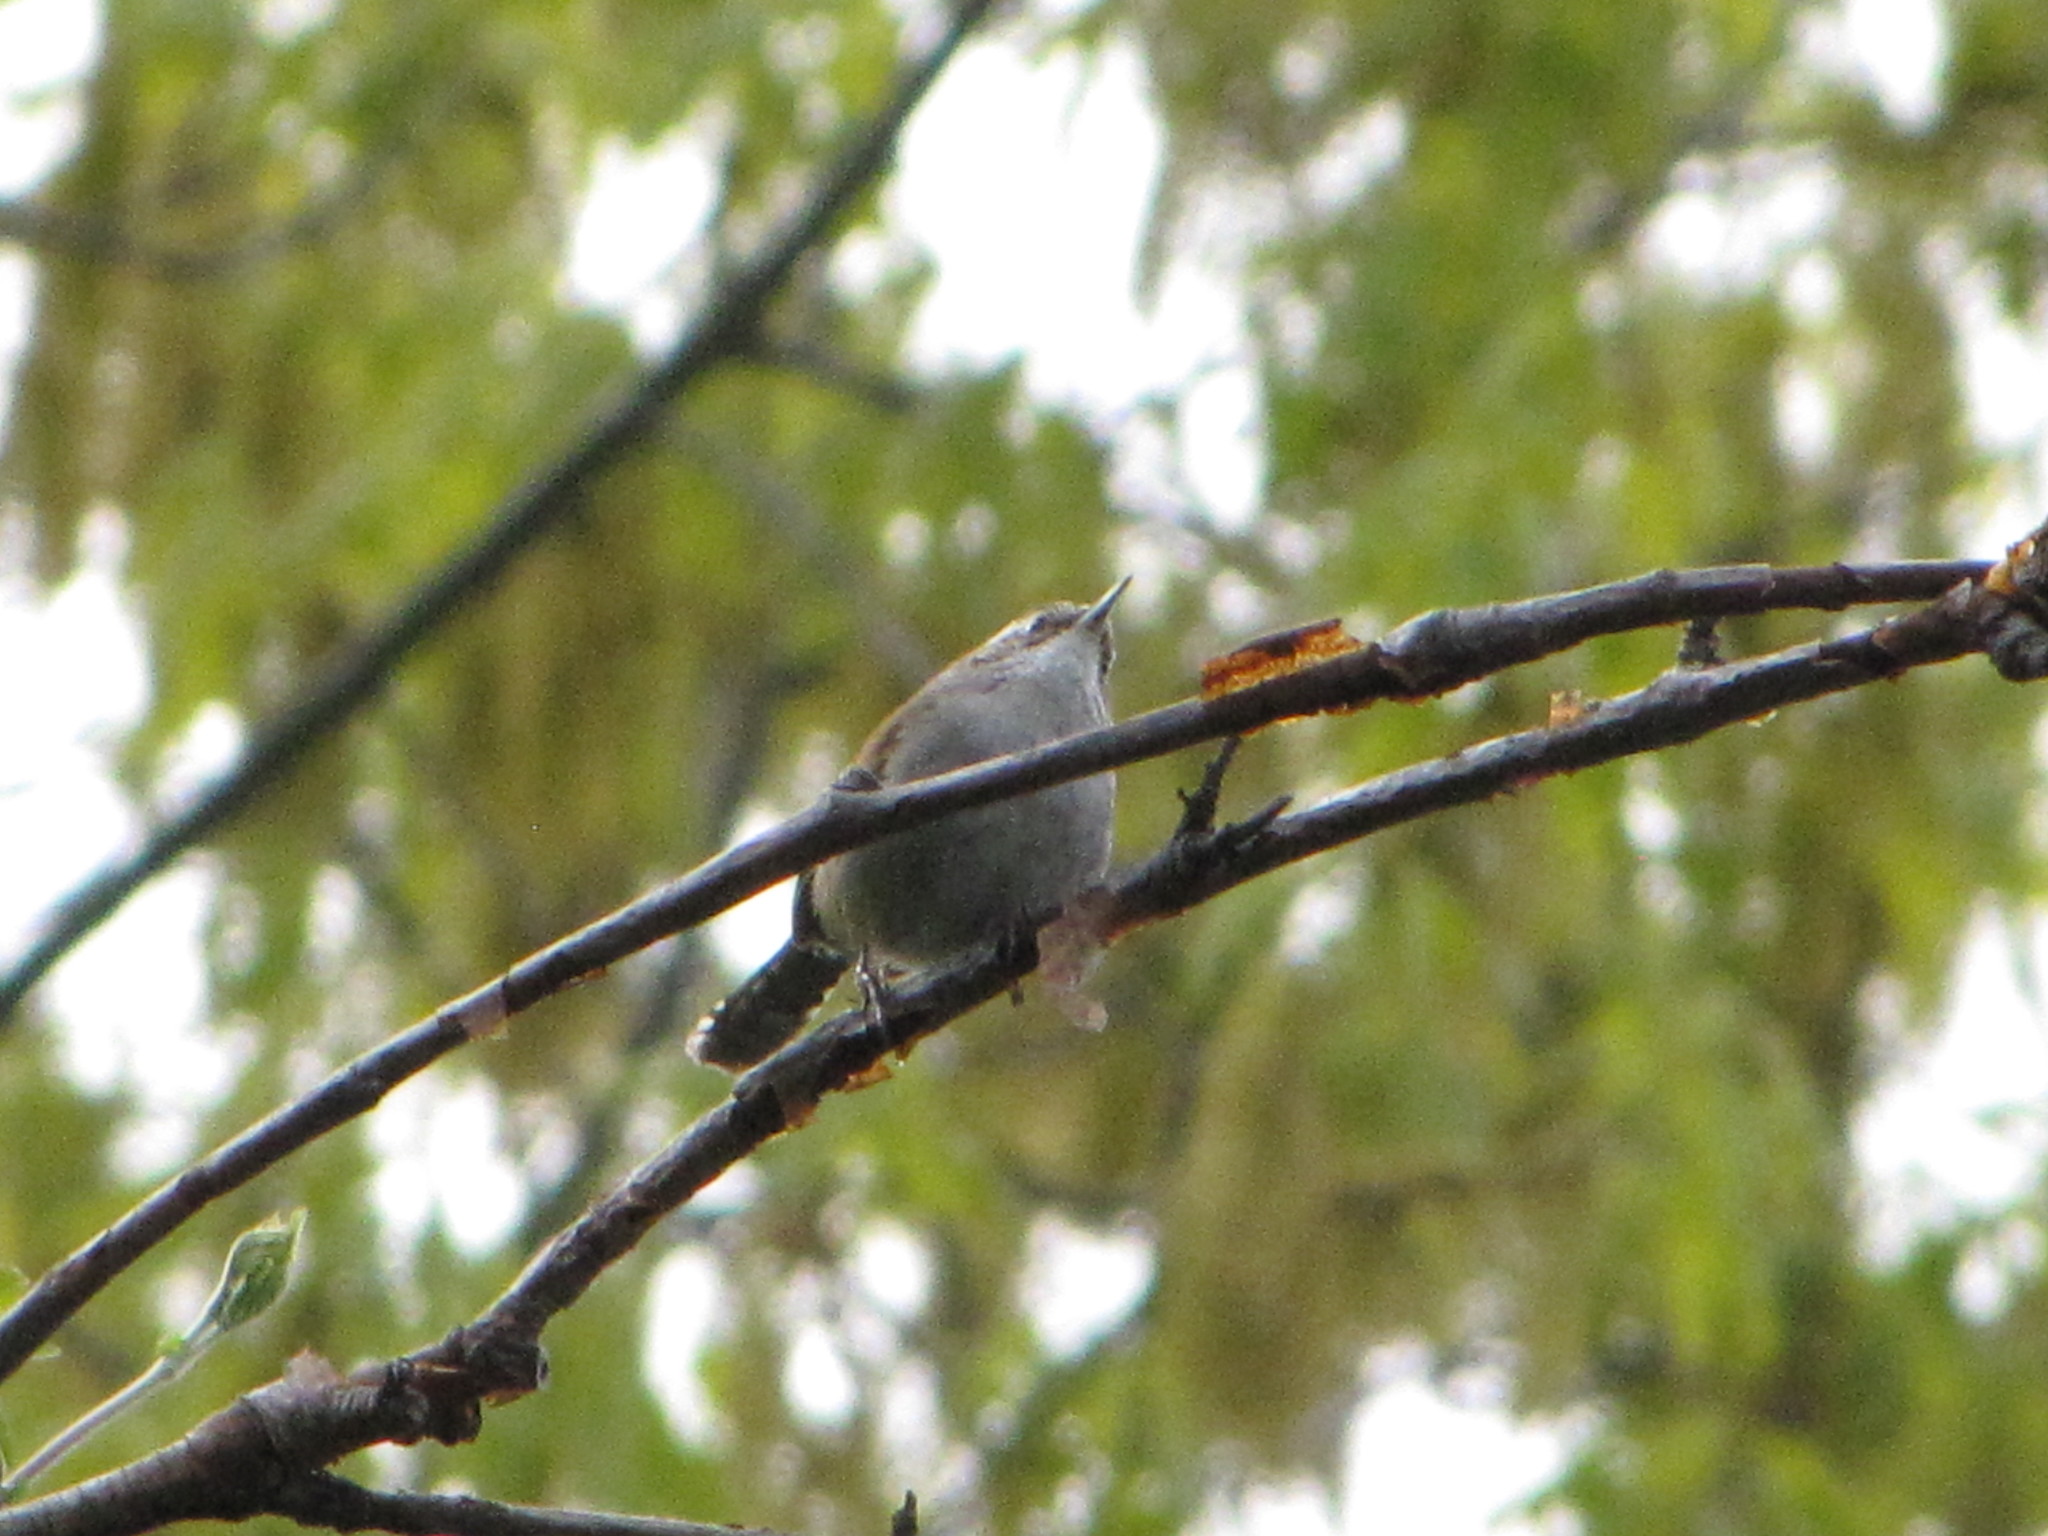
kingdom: Animalia
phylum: Chordata
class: Aves
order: Passeriformes
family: Troglodytidae
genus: Thryomanes
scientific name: Thryomanes bewickii
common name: Bewick's wren
